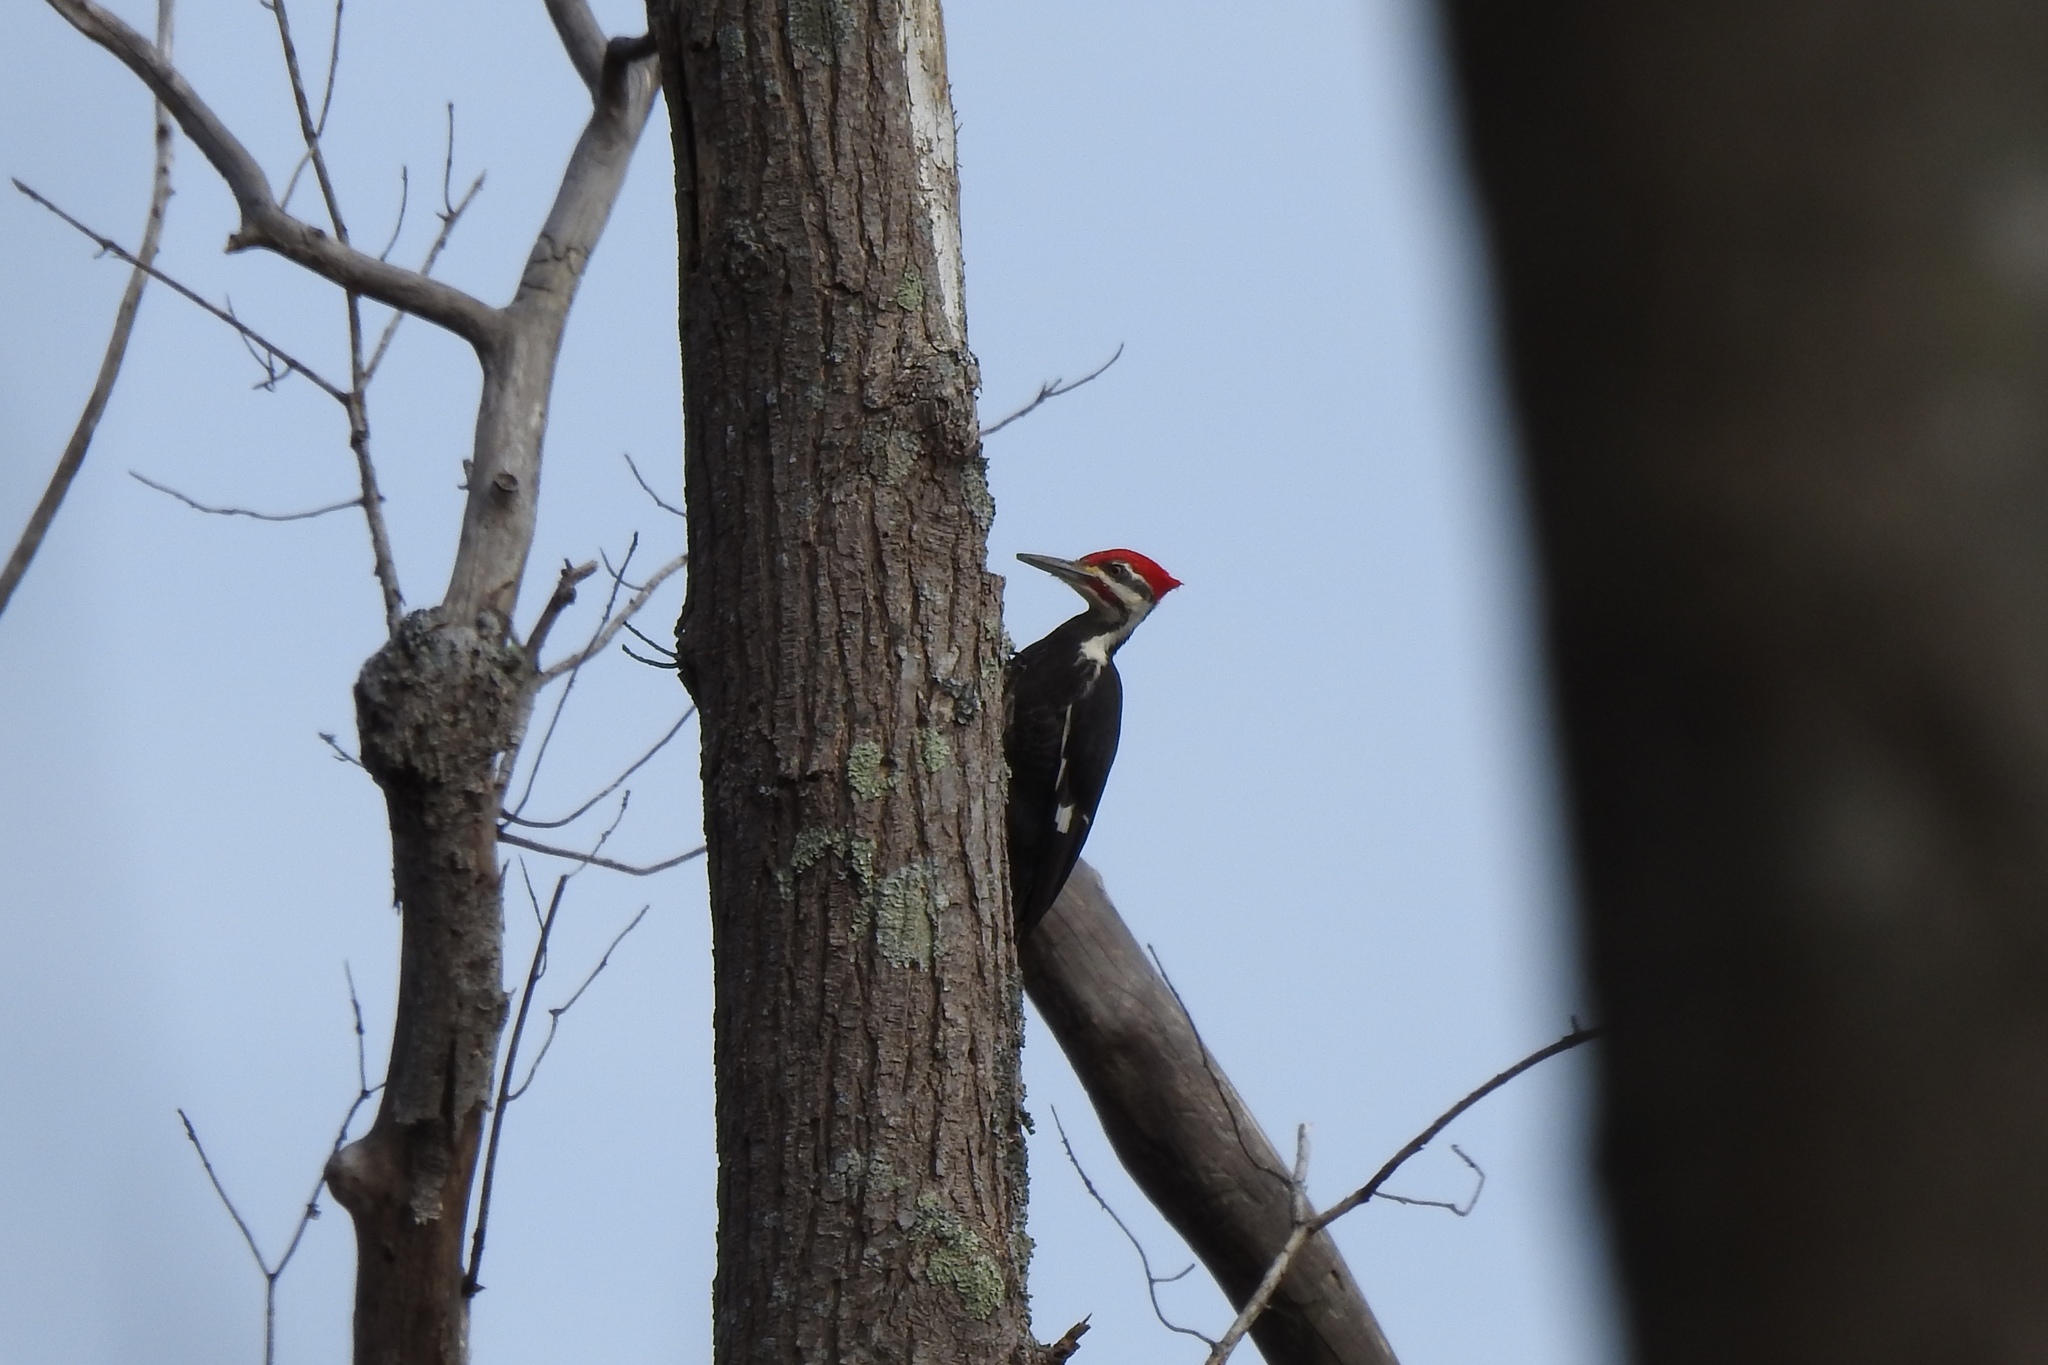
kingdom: Animalia
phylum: Chordata
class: Aves
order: Piciformes
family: Picidae
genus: Dryocopus
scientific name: Dryocopus pileatus
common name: Pileated woodpecker
